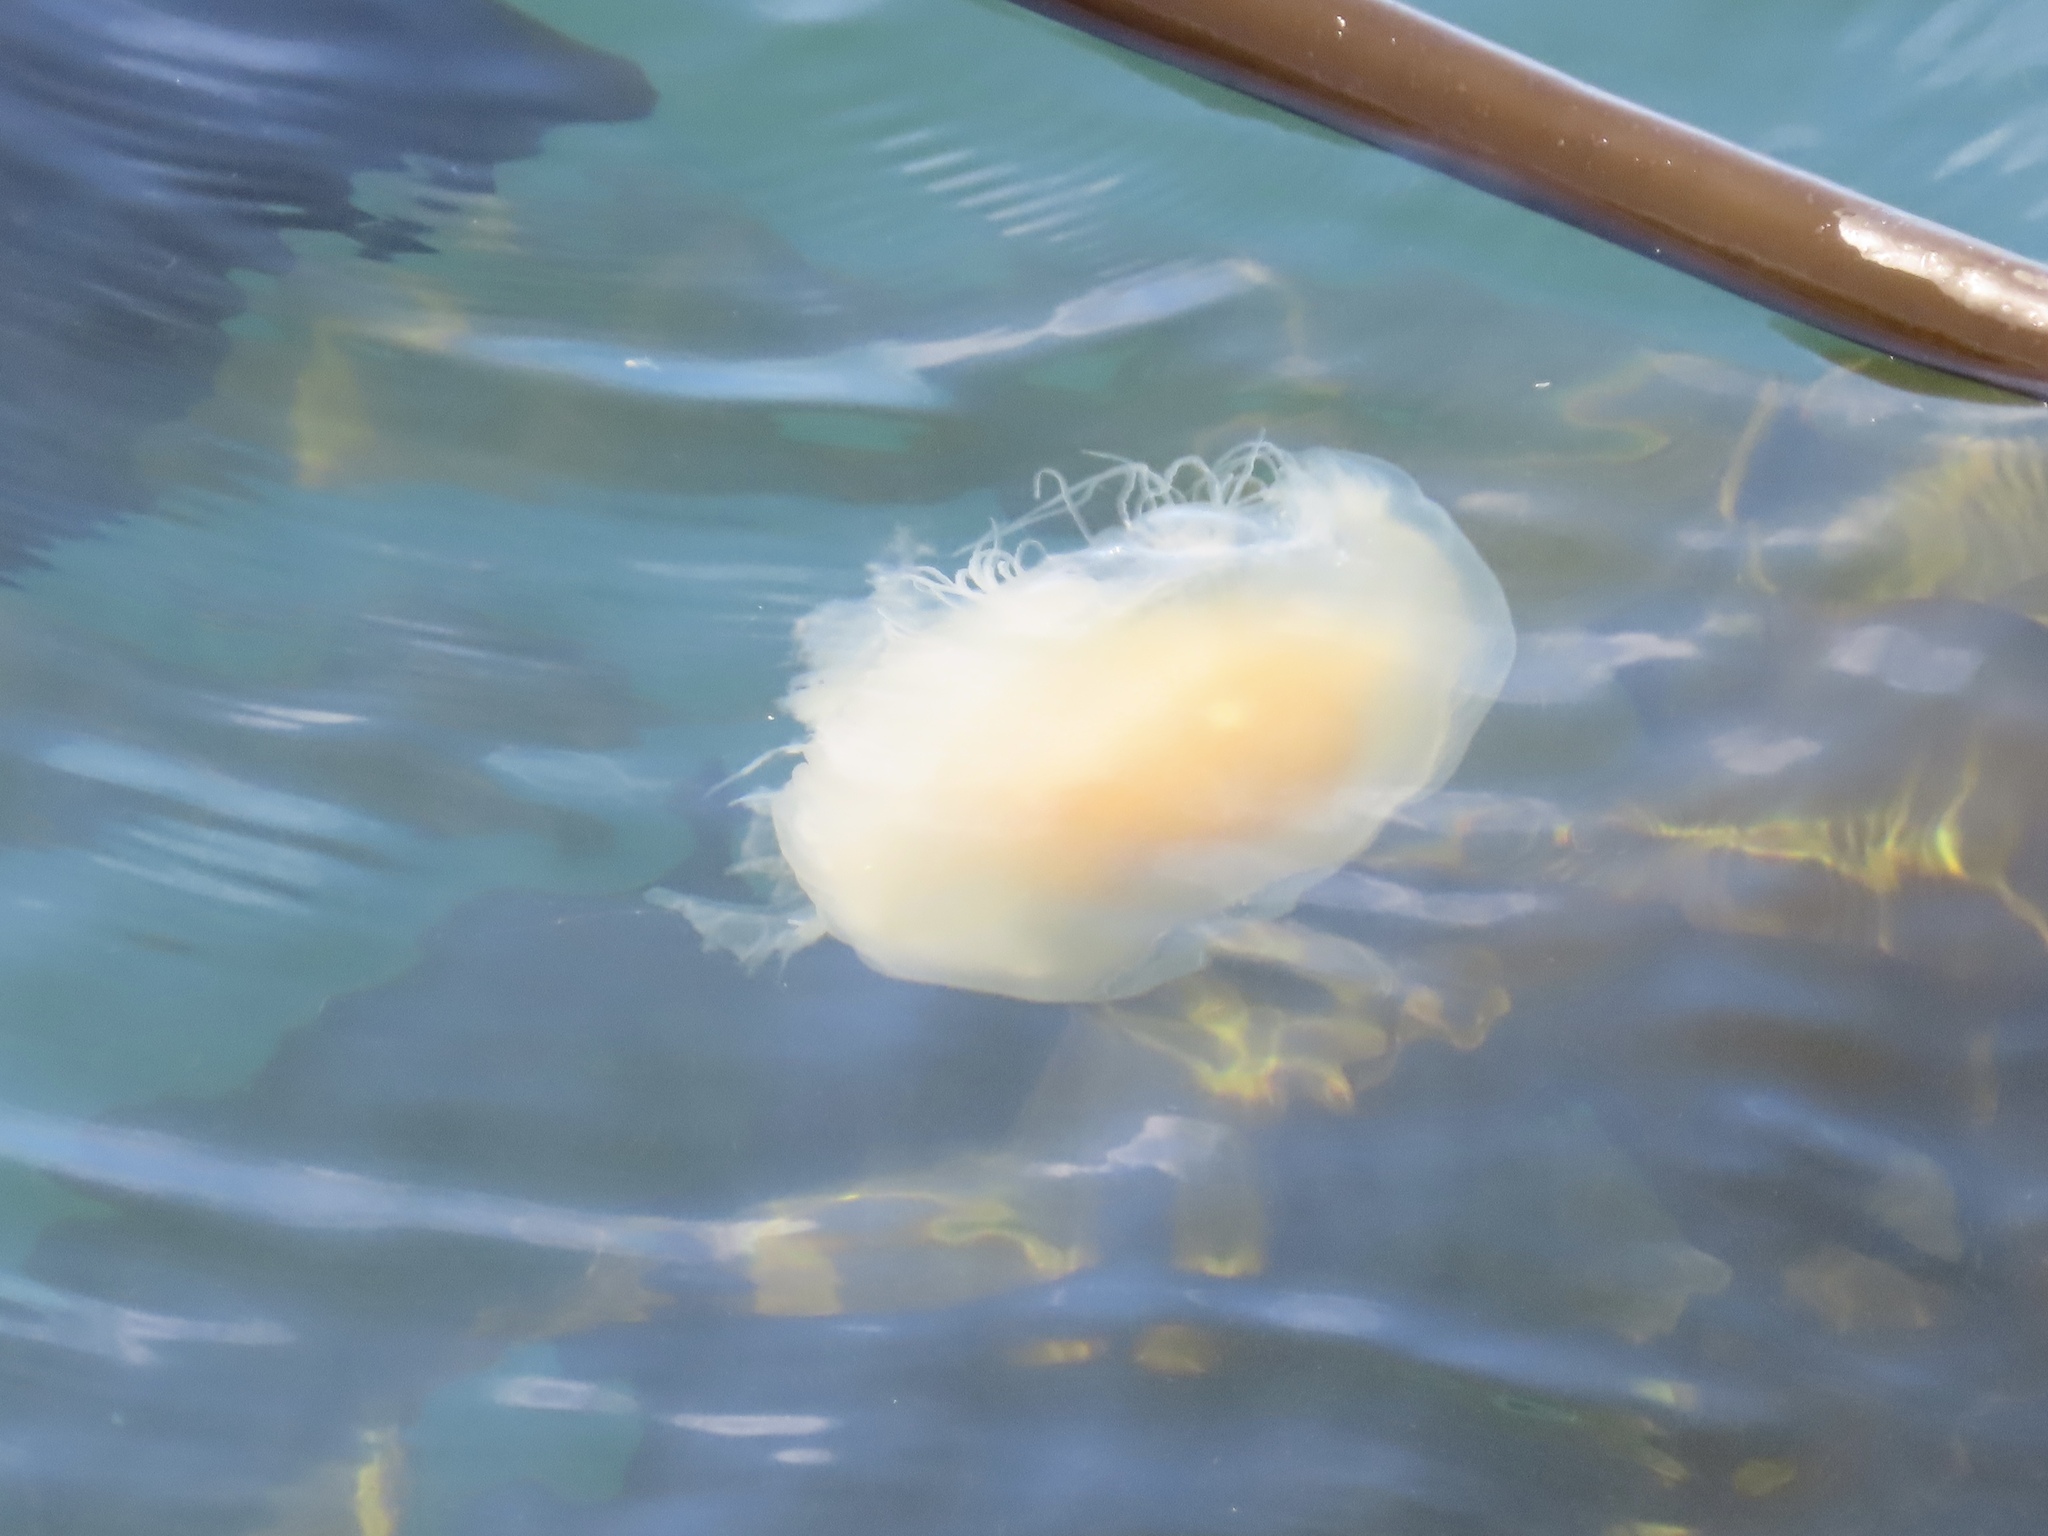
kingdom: Animalia
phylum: Cnidaria
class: Scyphozoa
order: Semaeostomeae
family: Phacellophoridae
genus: Phacellophora
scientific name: Phacellophora camtschatica
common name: Fried-egg jellyfish
